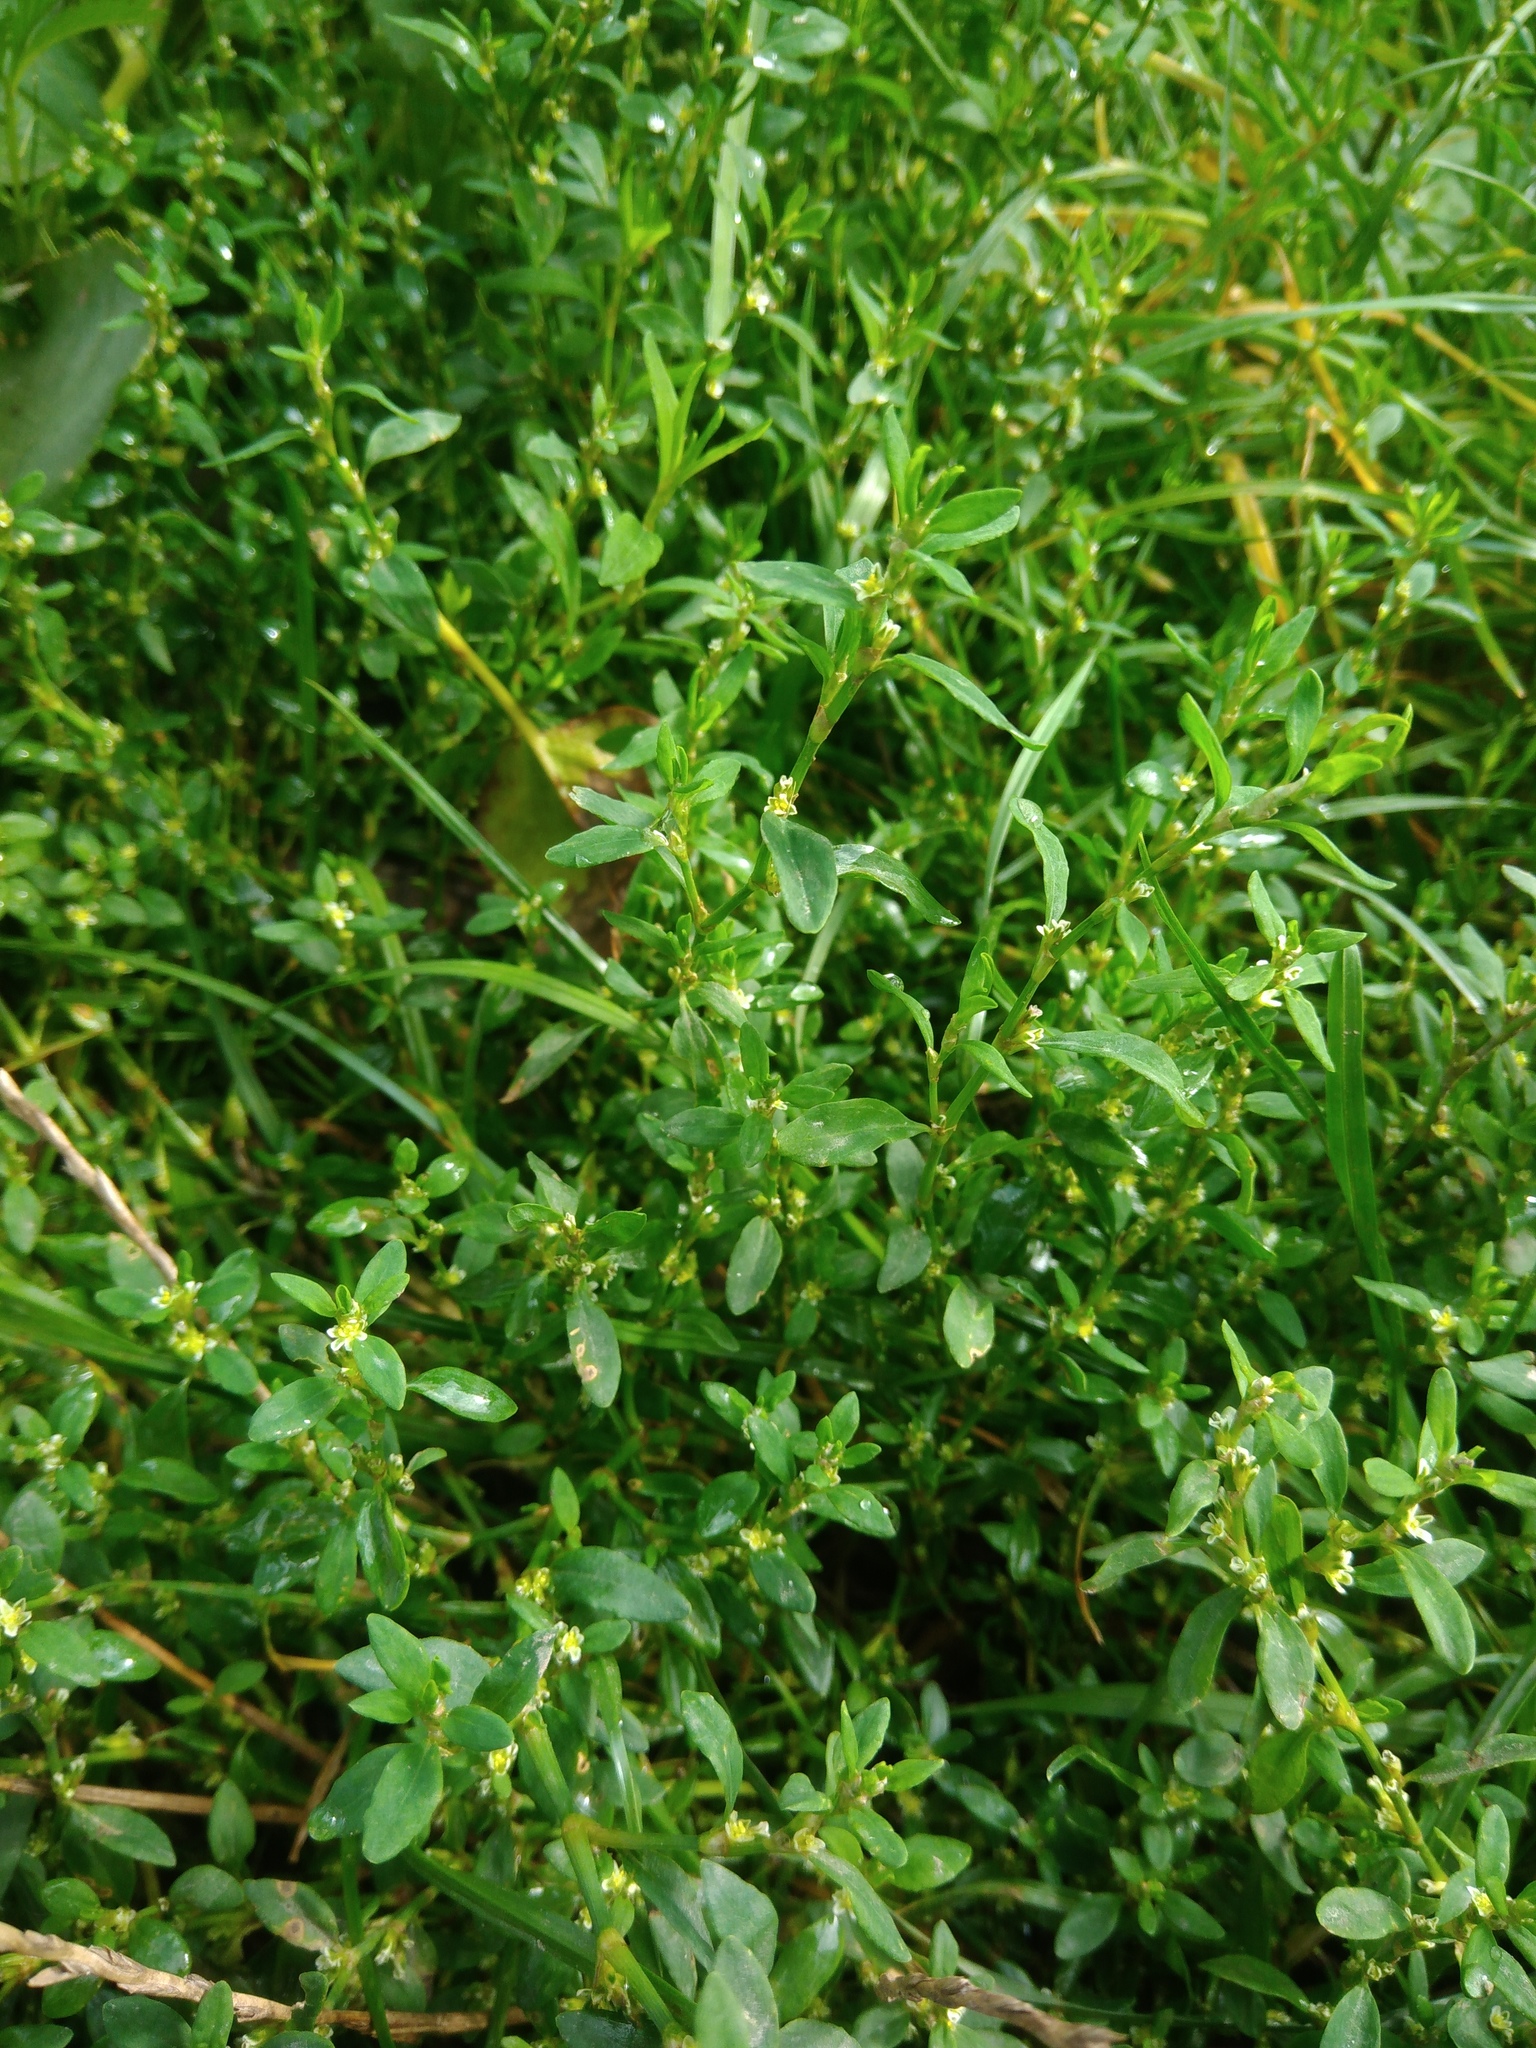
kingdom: Plantae
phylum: Tracheophyta
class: Magnoliopsida
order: Caryophyllales
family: Polygonaceae
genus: Polygonum
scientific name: Polygonum aviculare
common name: Prostrate knotweed
